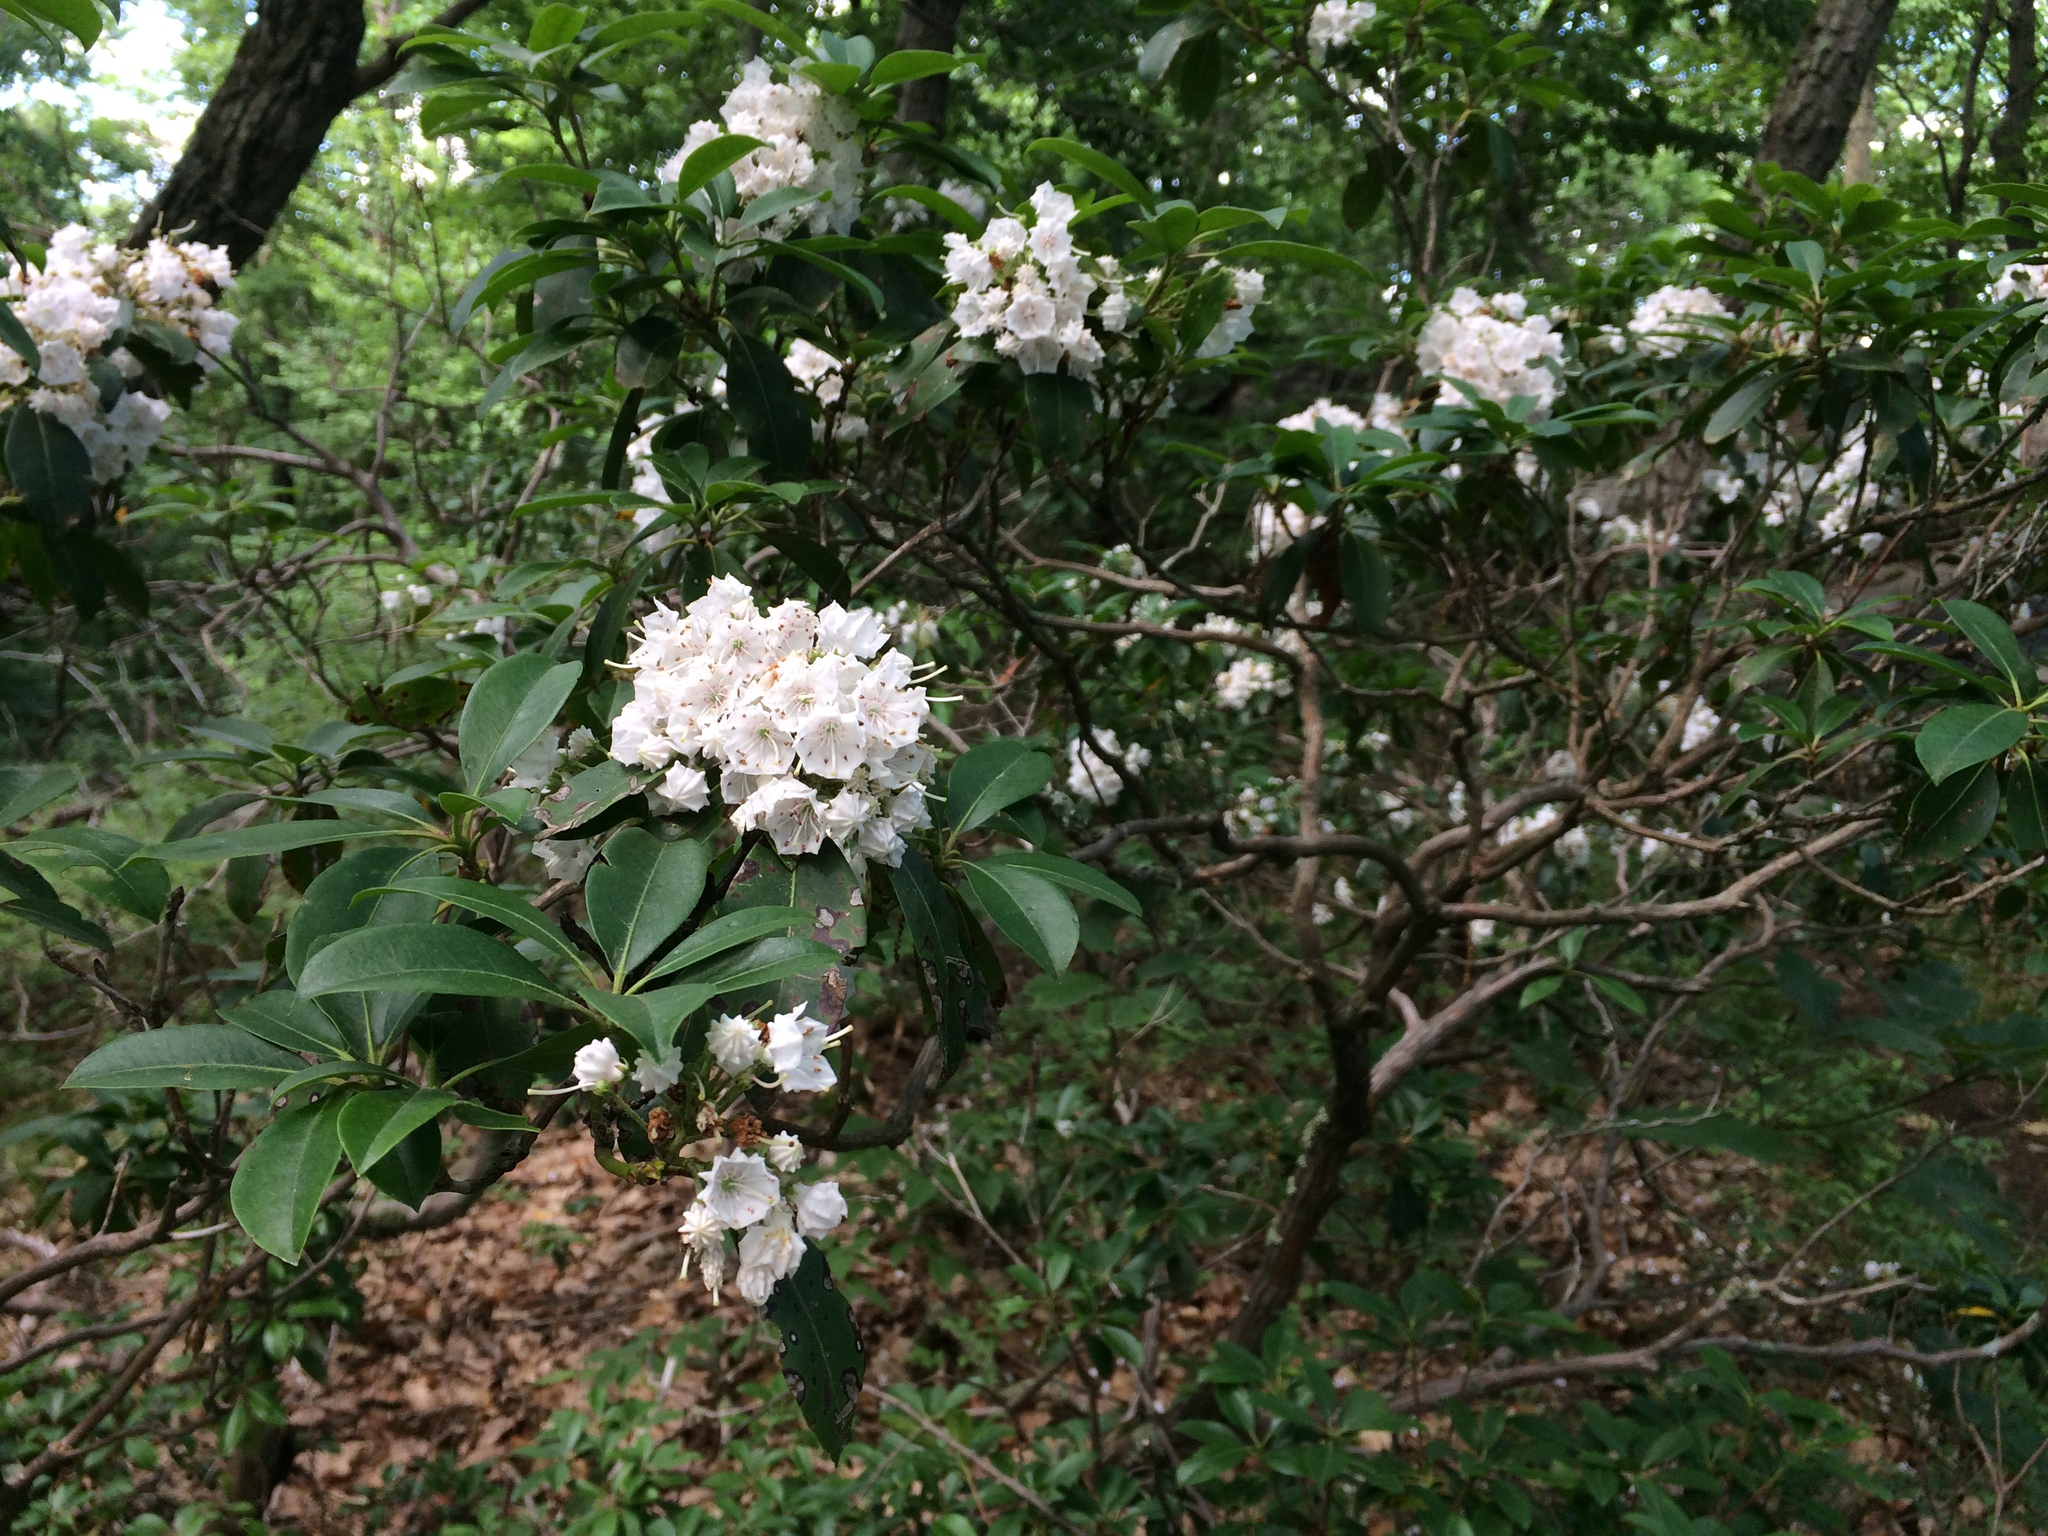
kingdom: Plantae
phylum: Tracheophyta
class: Magnoliopsida
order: Ericales
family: Ericaceae
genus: Kalmia
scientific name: Kalmia latifolia
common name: Mountain-laurel
